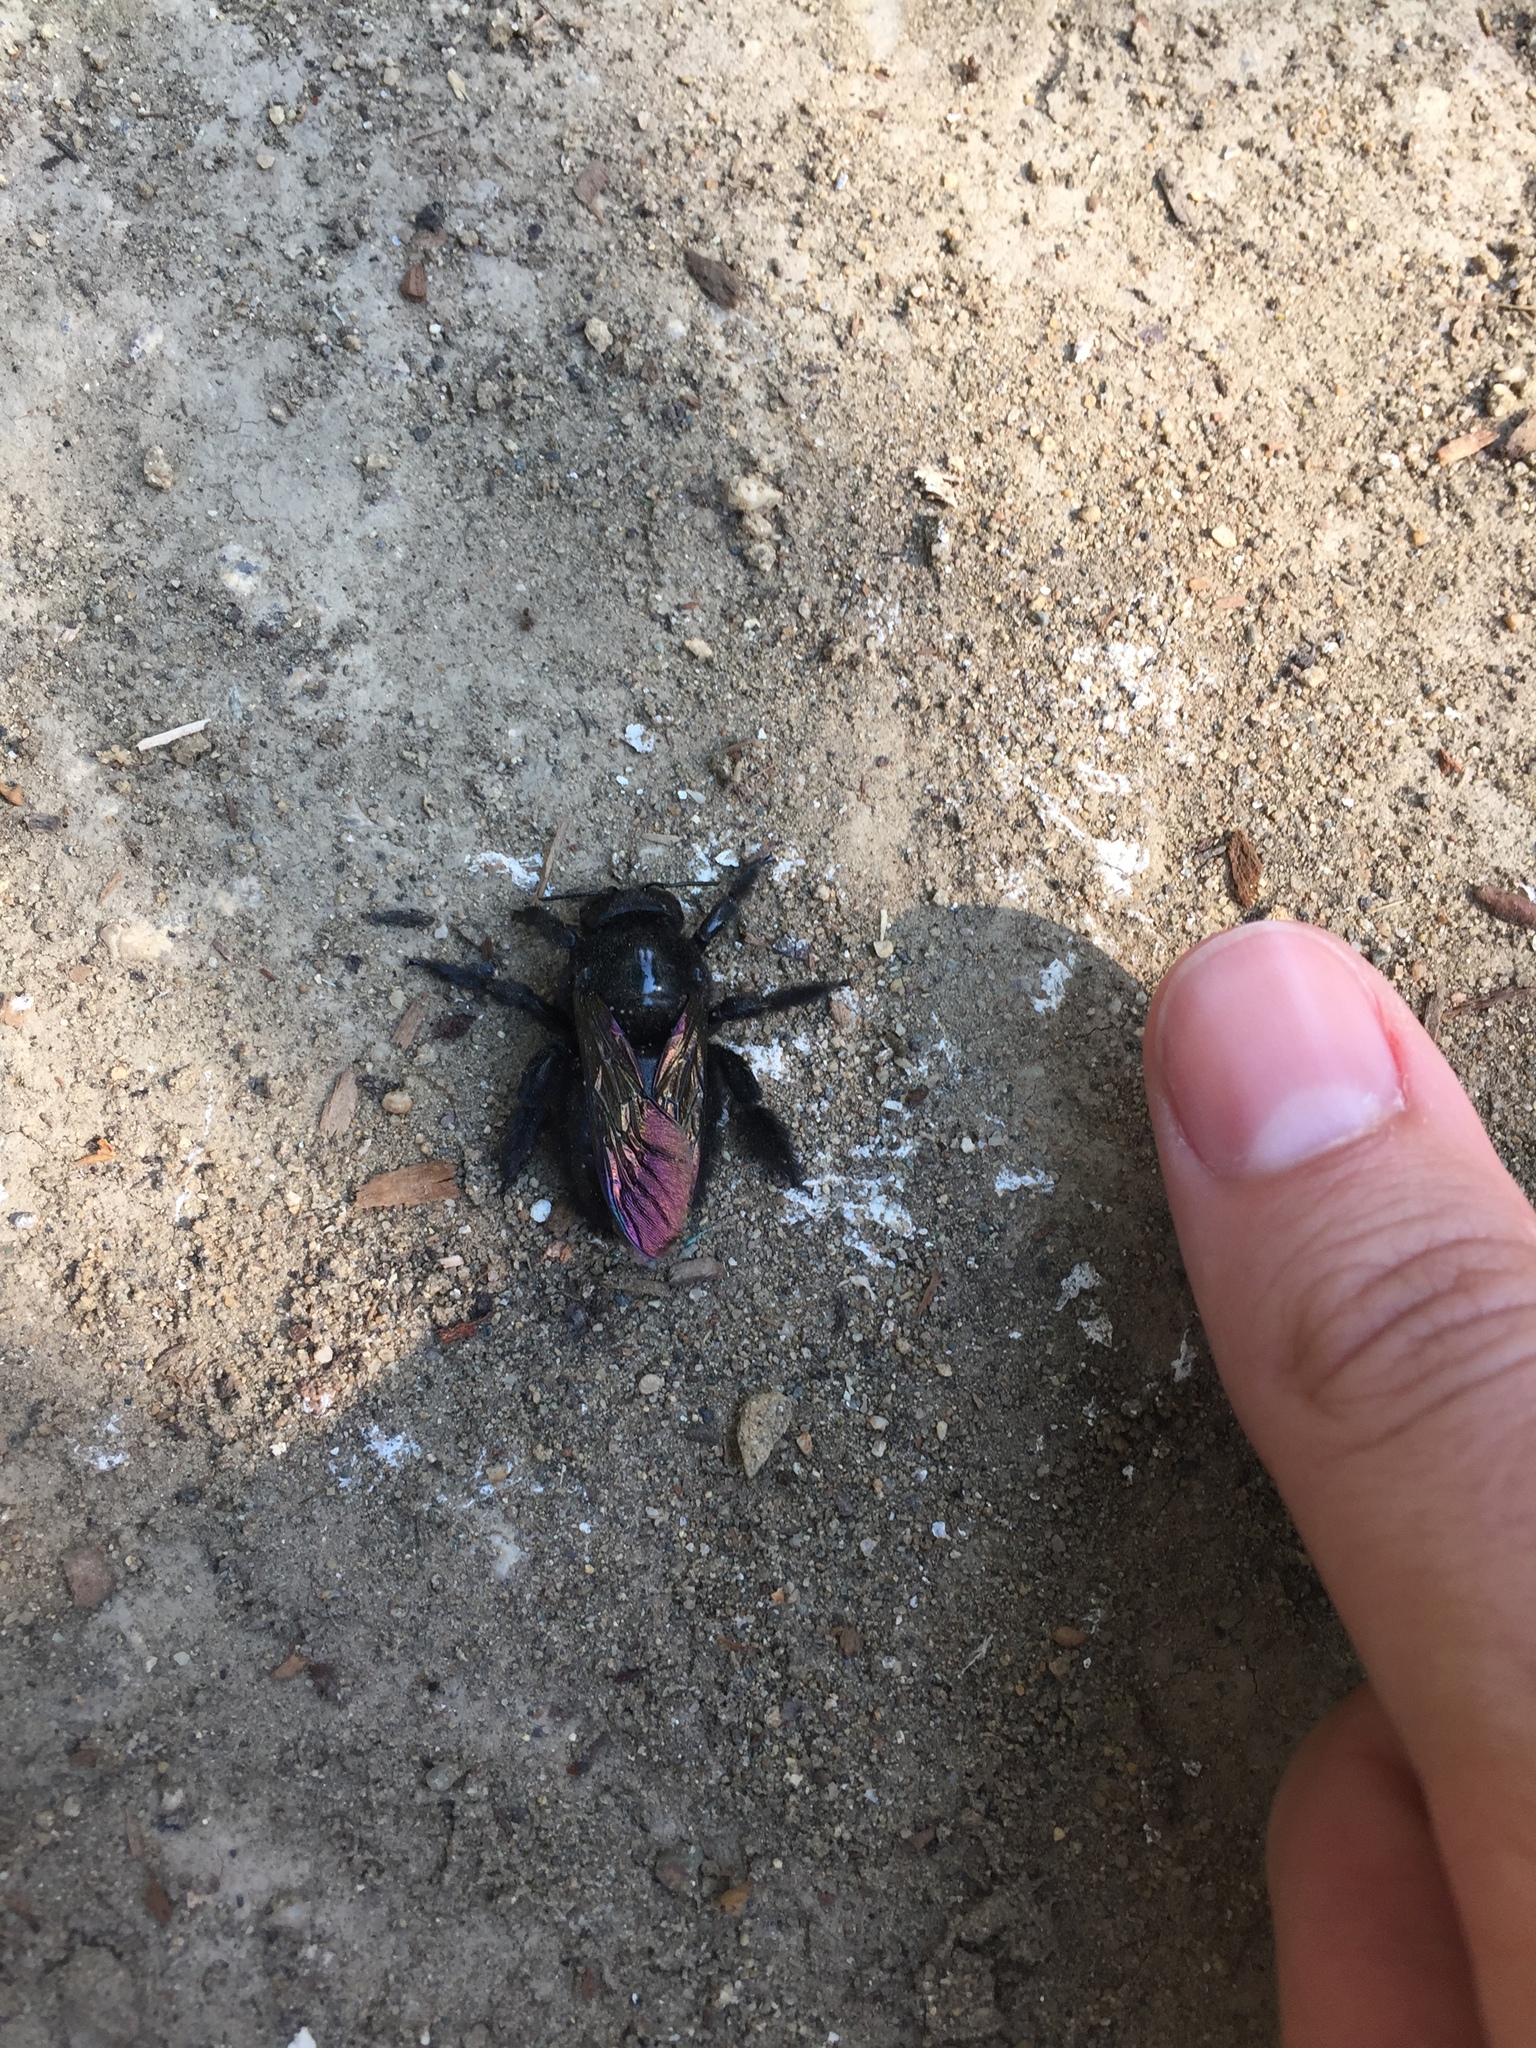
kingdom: Animalia
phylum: Arthropoda
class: Insecta
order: Hymenoptera
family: Apidae
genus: Xylocopa
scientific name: Xylocopa sonorina
